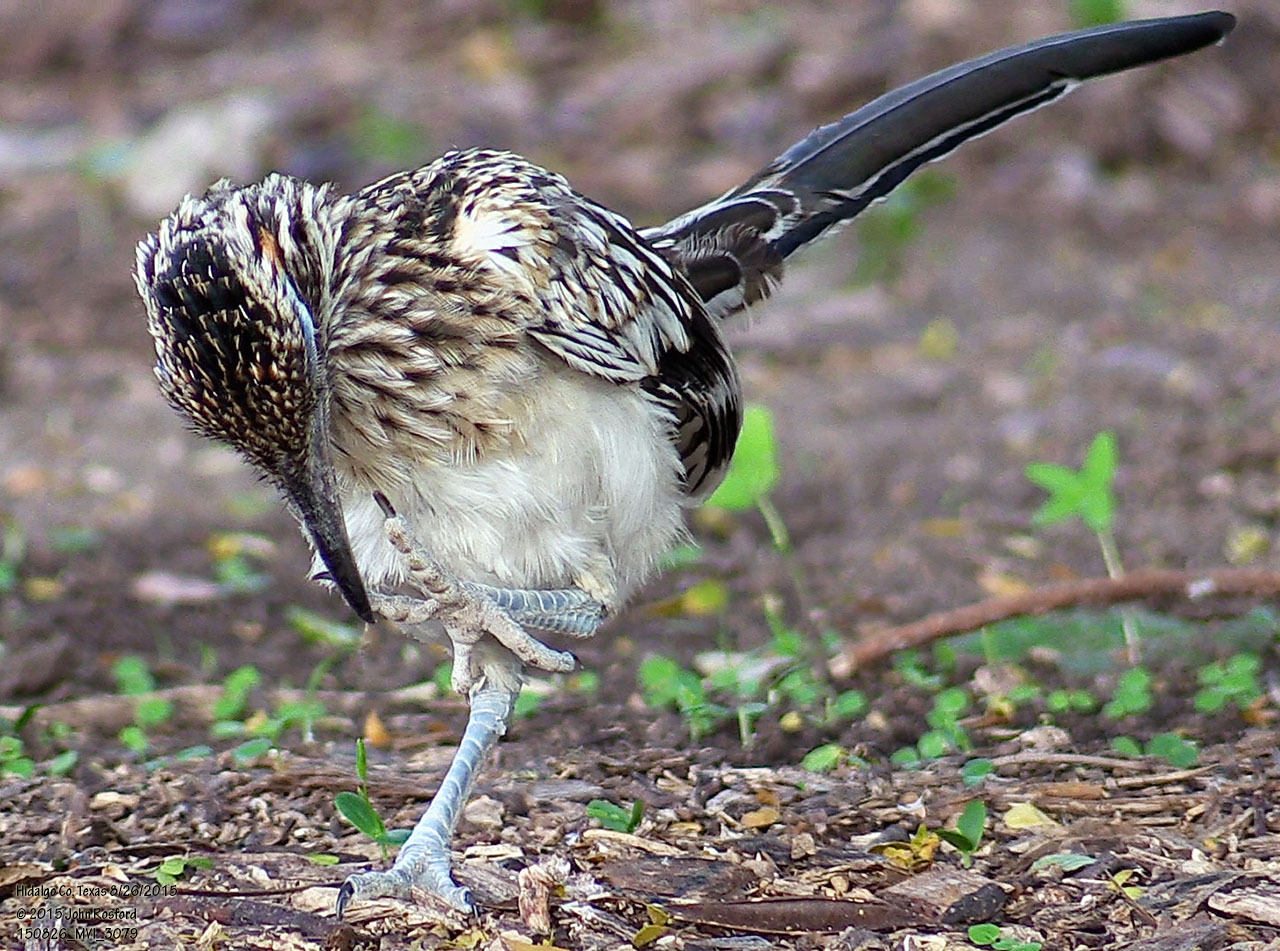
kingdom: Animalia
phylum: Chordata
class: Aves
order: Cuculiformes
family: Cuculidae
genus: Geococcyx
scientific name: Geococcyx californianus
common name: Greater roadrunner
